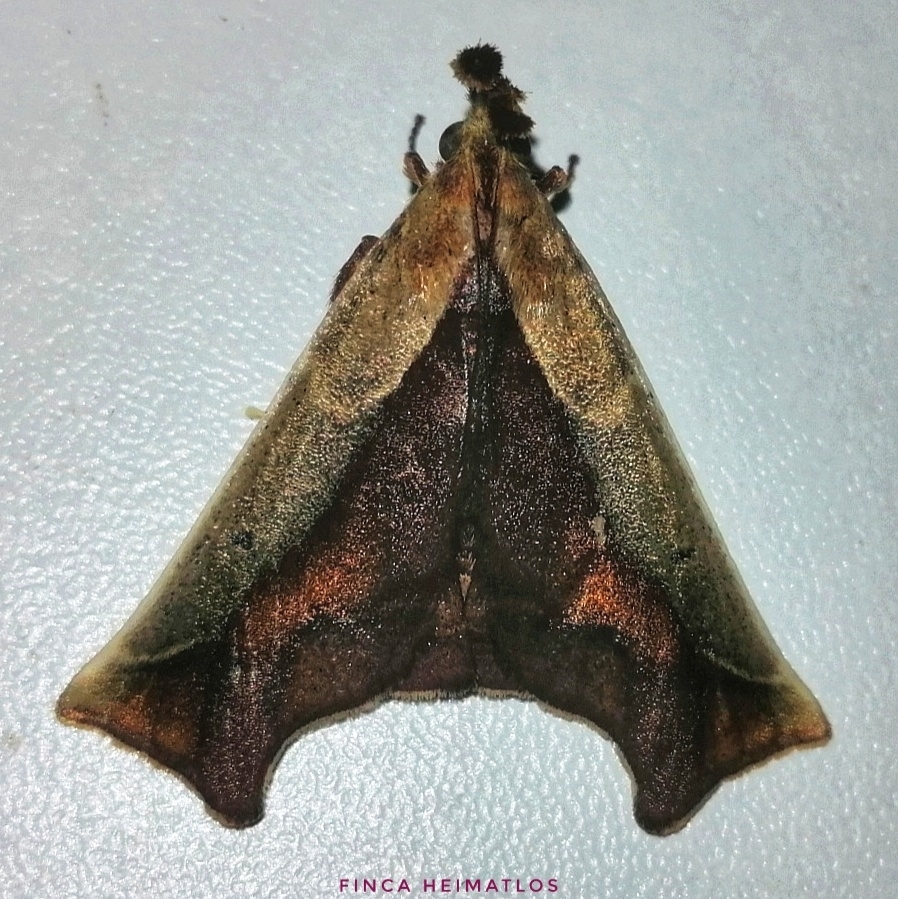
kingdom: Animalia
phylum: Arthropoda
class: Insecta
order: Lepidoptera
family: Pyralidae
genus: Arbinia
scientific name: Arbinia todilla
